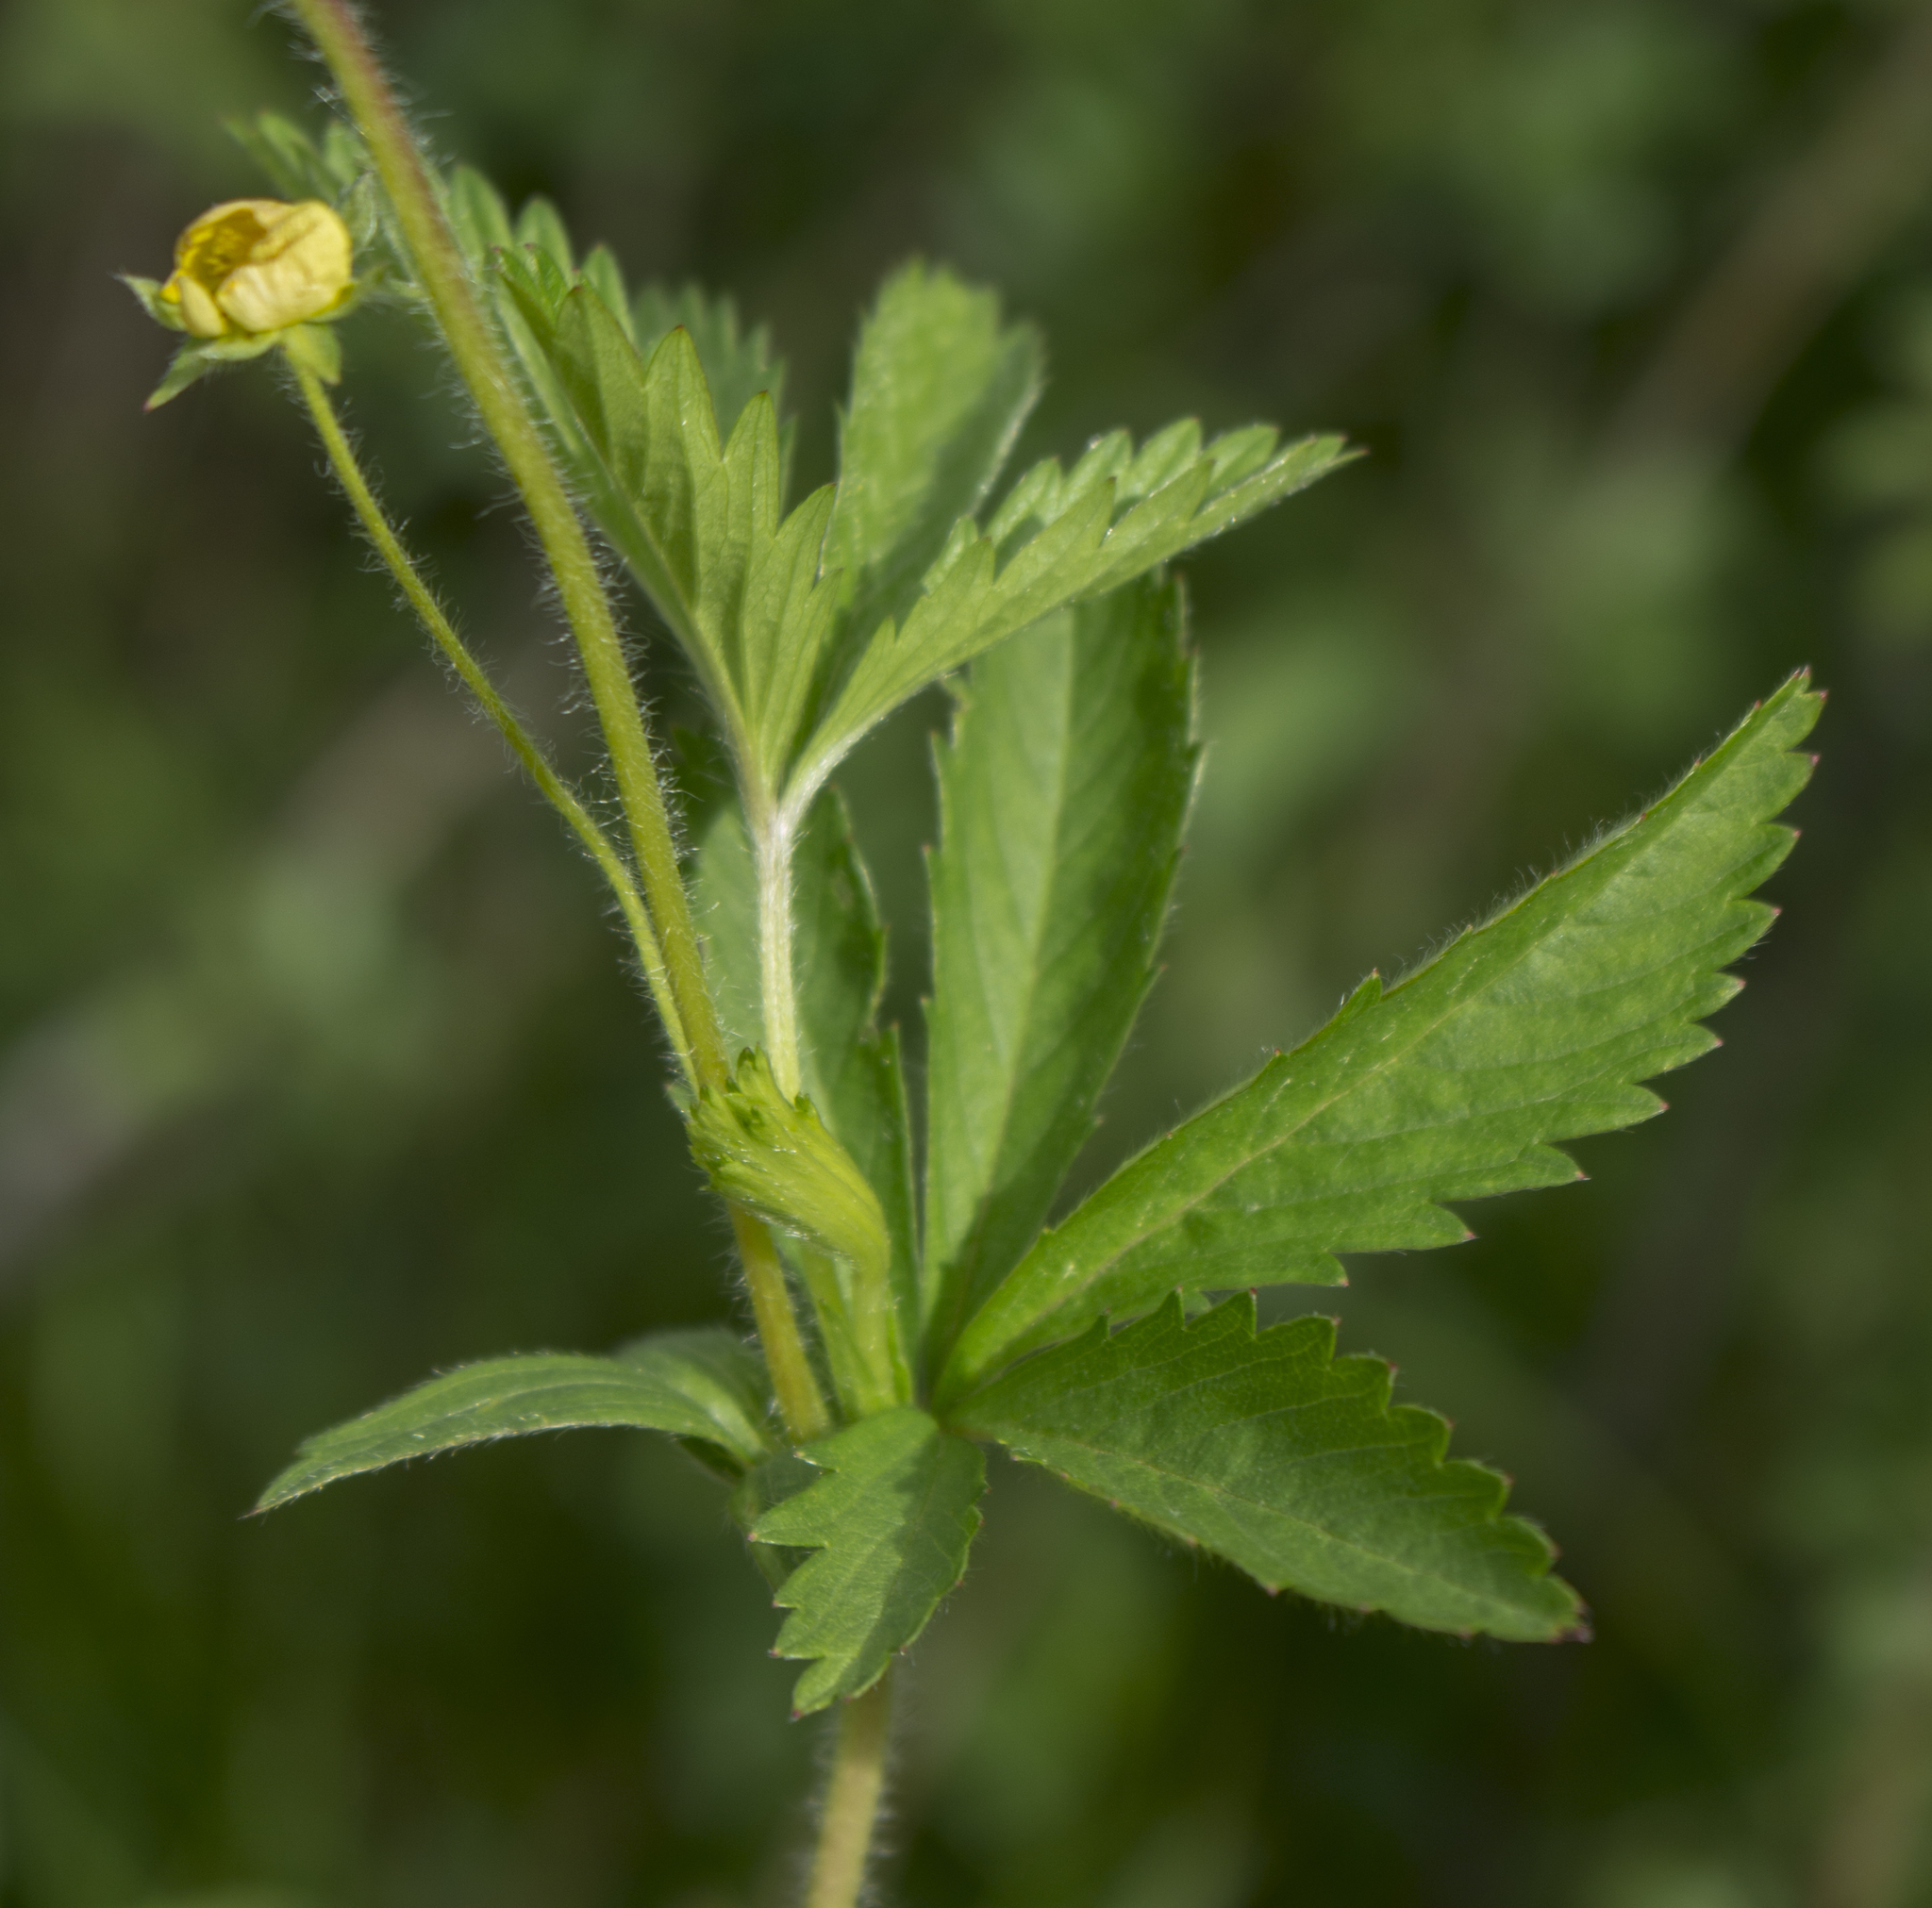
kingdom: Plantae
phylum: Tracheophyta
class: Magnoliopsida
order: Rosales
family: Rosaceae
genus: Potentilla
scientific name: Potentilla simplex
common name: Old field cinquefoil
